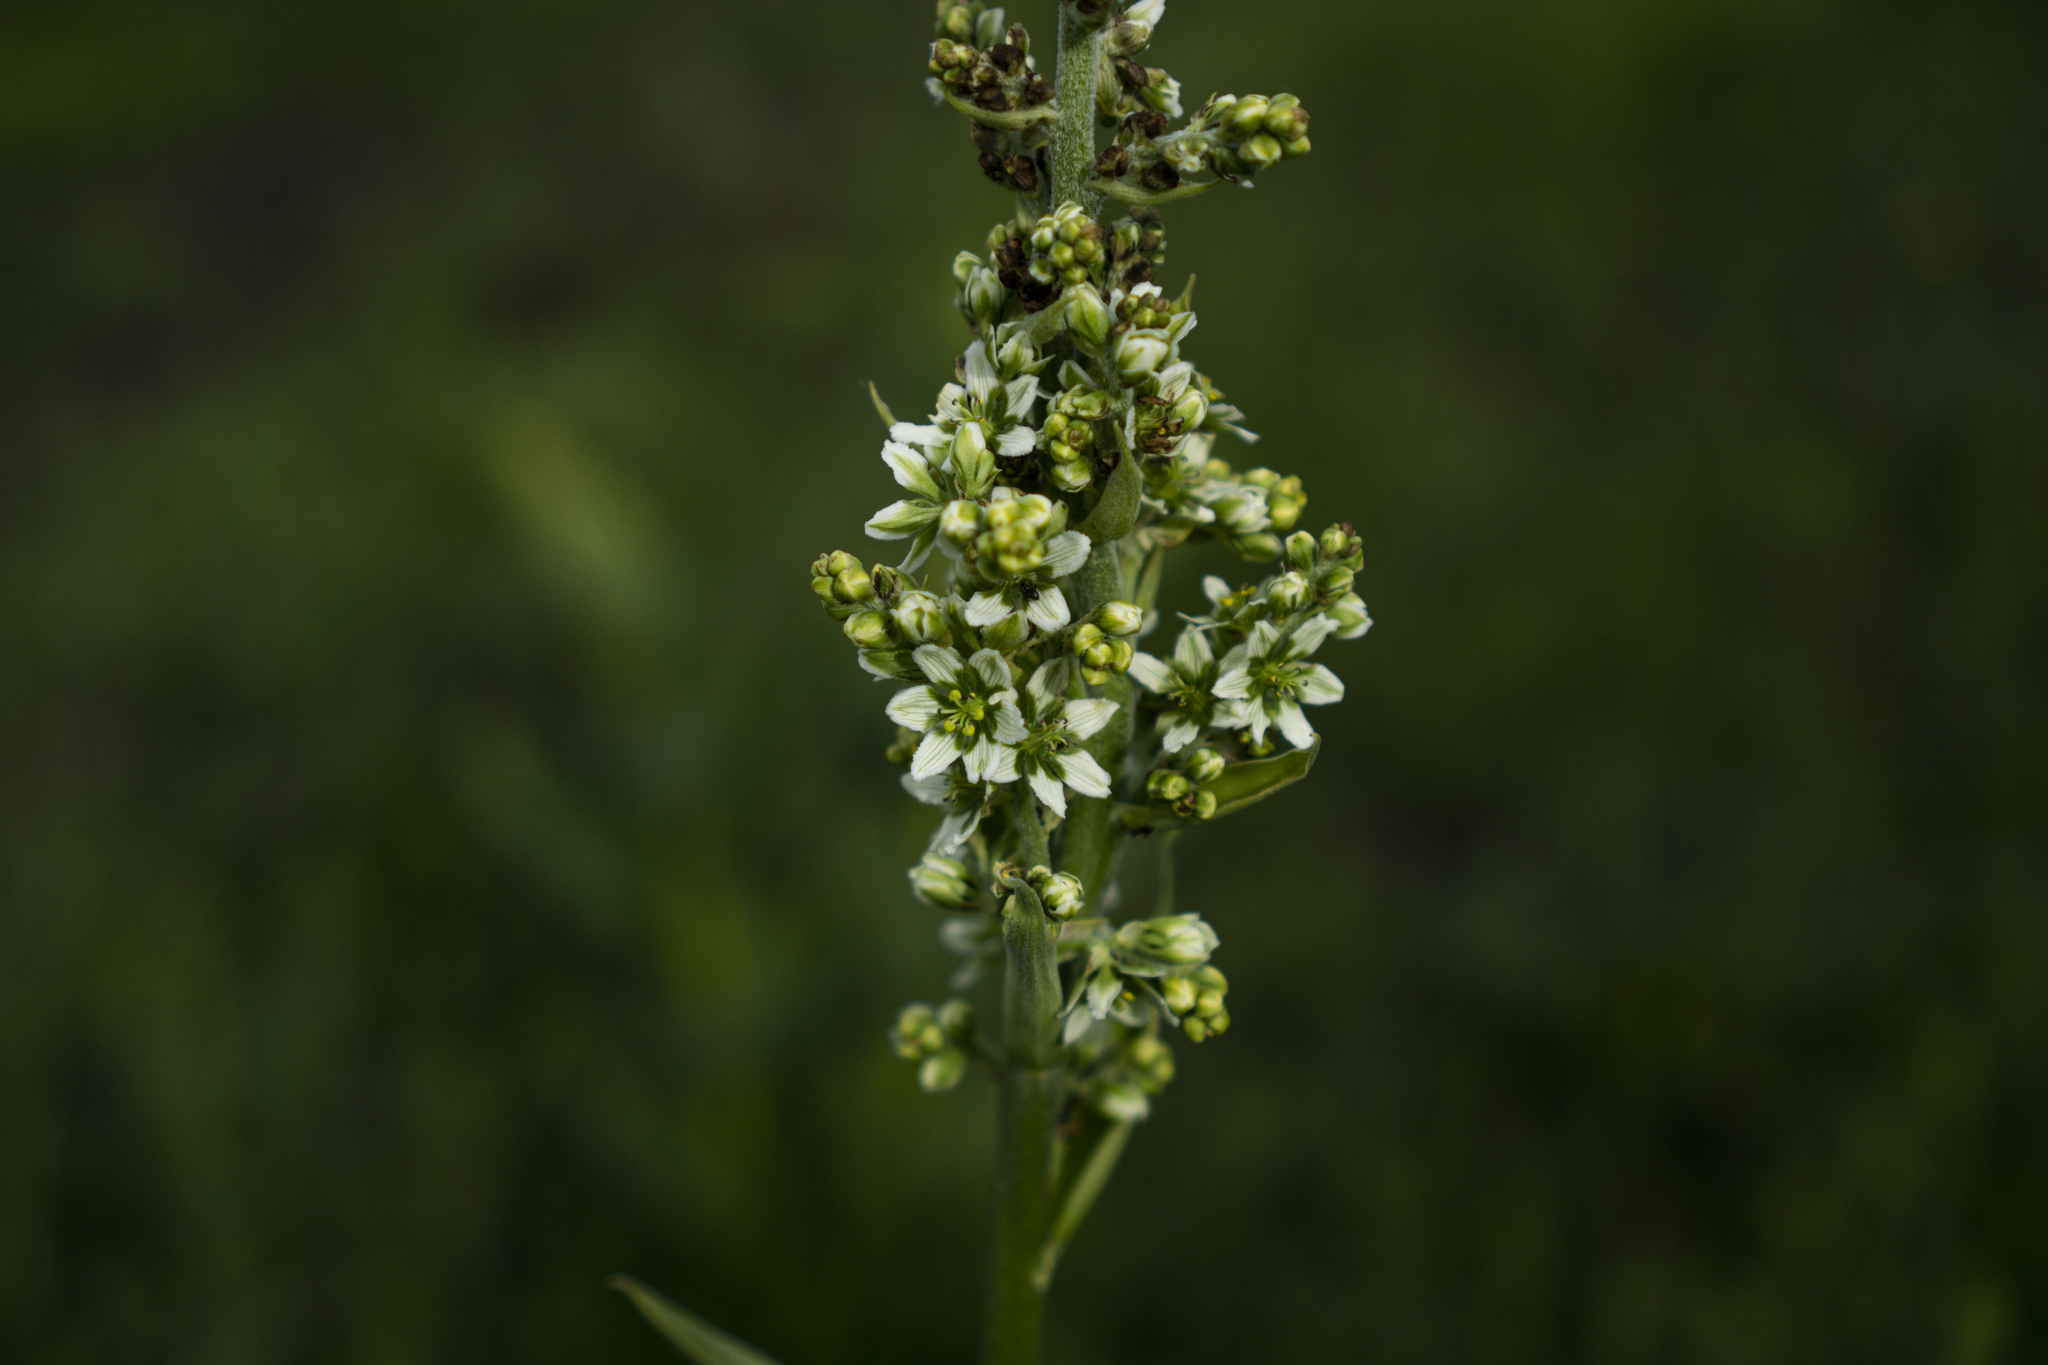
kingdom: Plantae
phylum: Tracheophyta
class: Liliopsida
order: Liliales
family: Melanthiaceae
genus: Veratrum
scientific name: Veratrum album
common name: White veratrum
